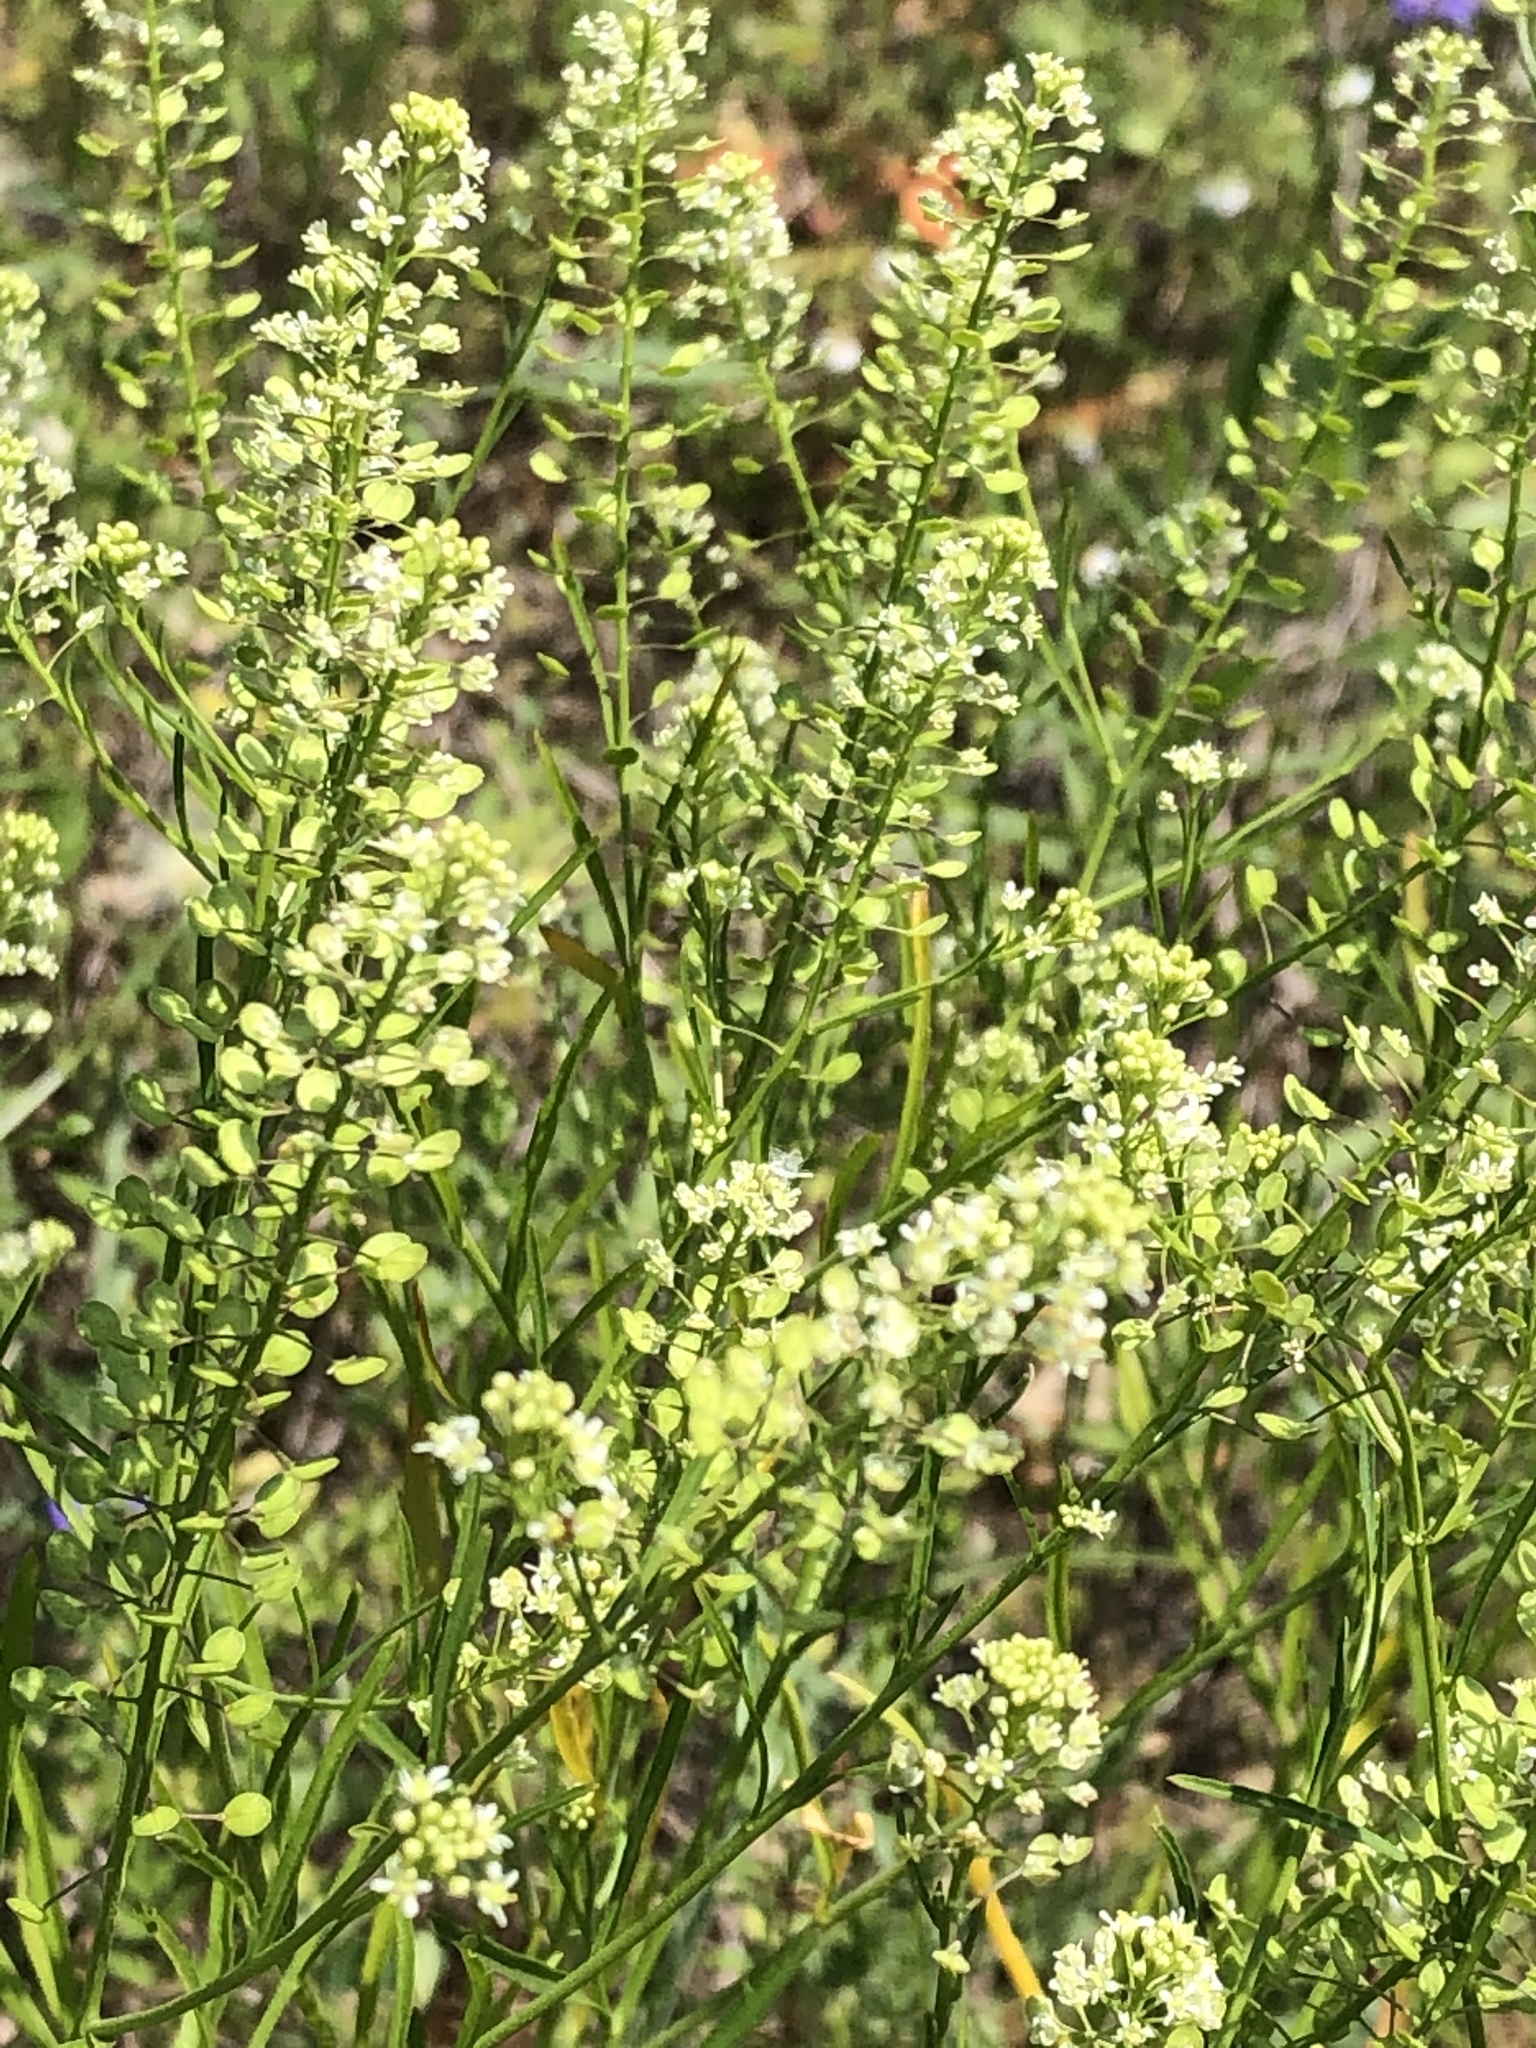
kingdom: Plantae
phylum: Tracheophyta
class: Magnoliopsida
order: Brassicales
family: Brassicaceae
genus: Lepidium
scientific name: Lepidium virginicum
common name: Least pepperwort
